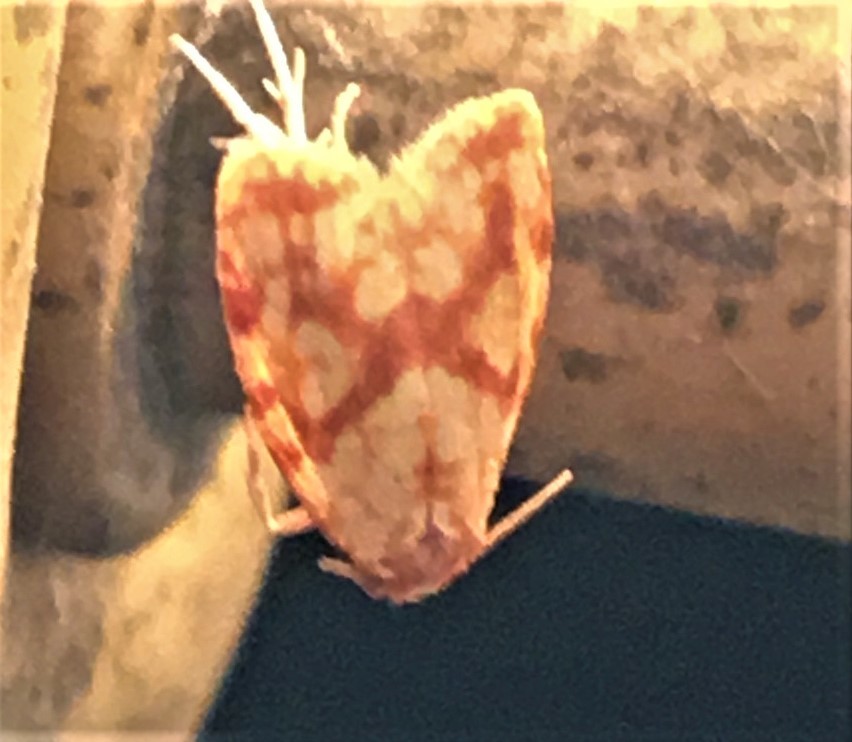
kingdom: Animalia
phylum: Arthropoda
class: Insecta
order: Lepidoptera
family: Tortricidae
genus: Sparganothis
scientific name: Sparganothis sulfureana
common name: Sparganothis fruitworm moth
